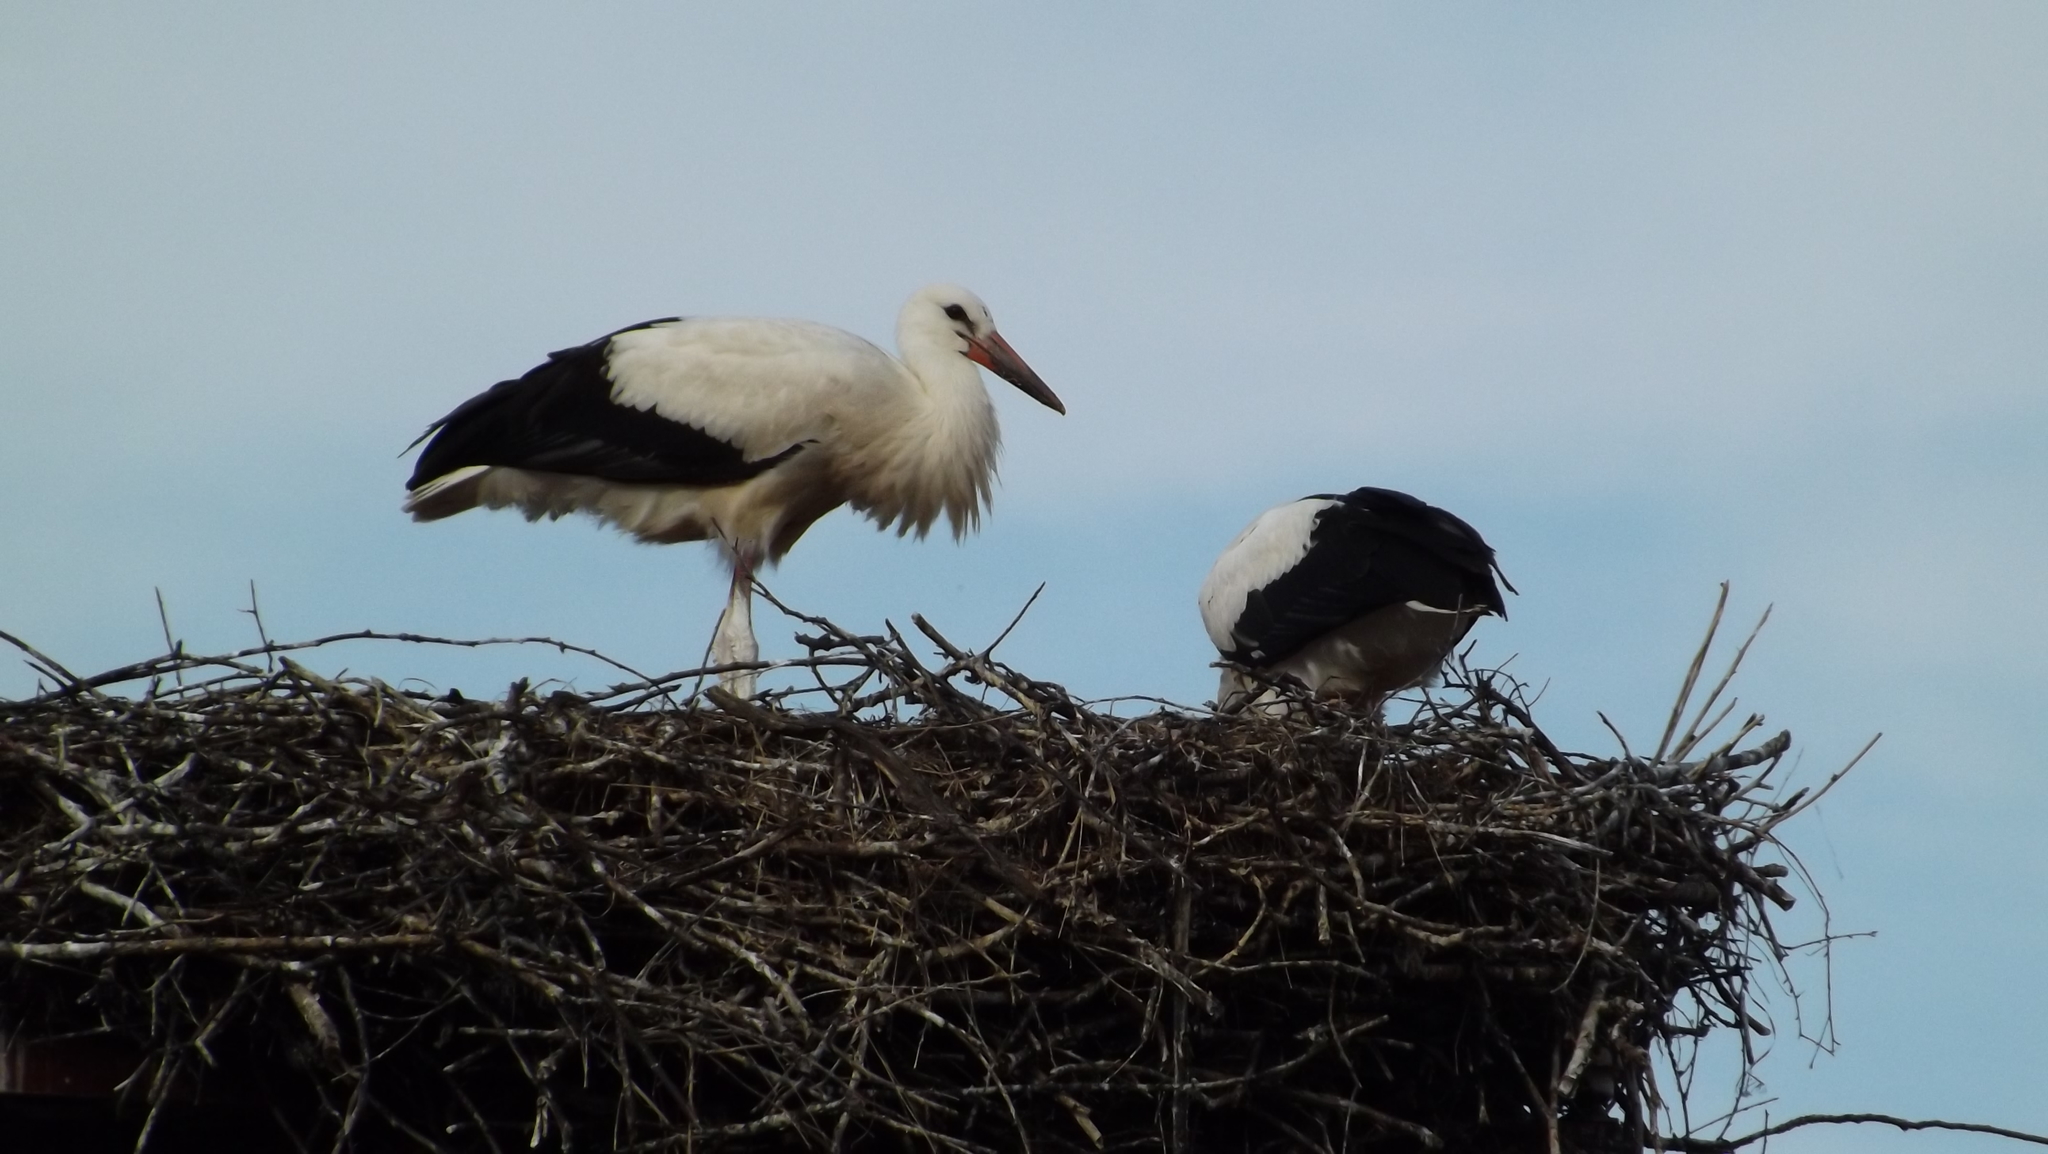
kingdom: Animalia
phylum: Chordata
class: Aves
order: Ciconiiformes
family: Ciconiidae
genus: Ciconia
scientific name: Ciconia ciconia
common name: White stork
